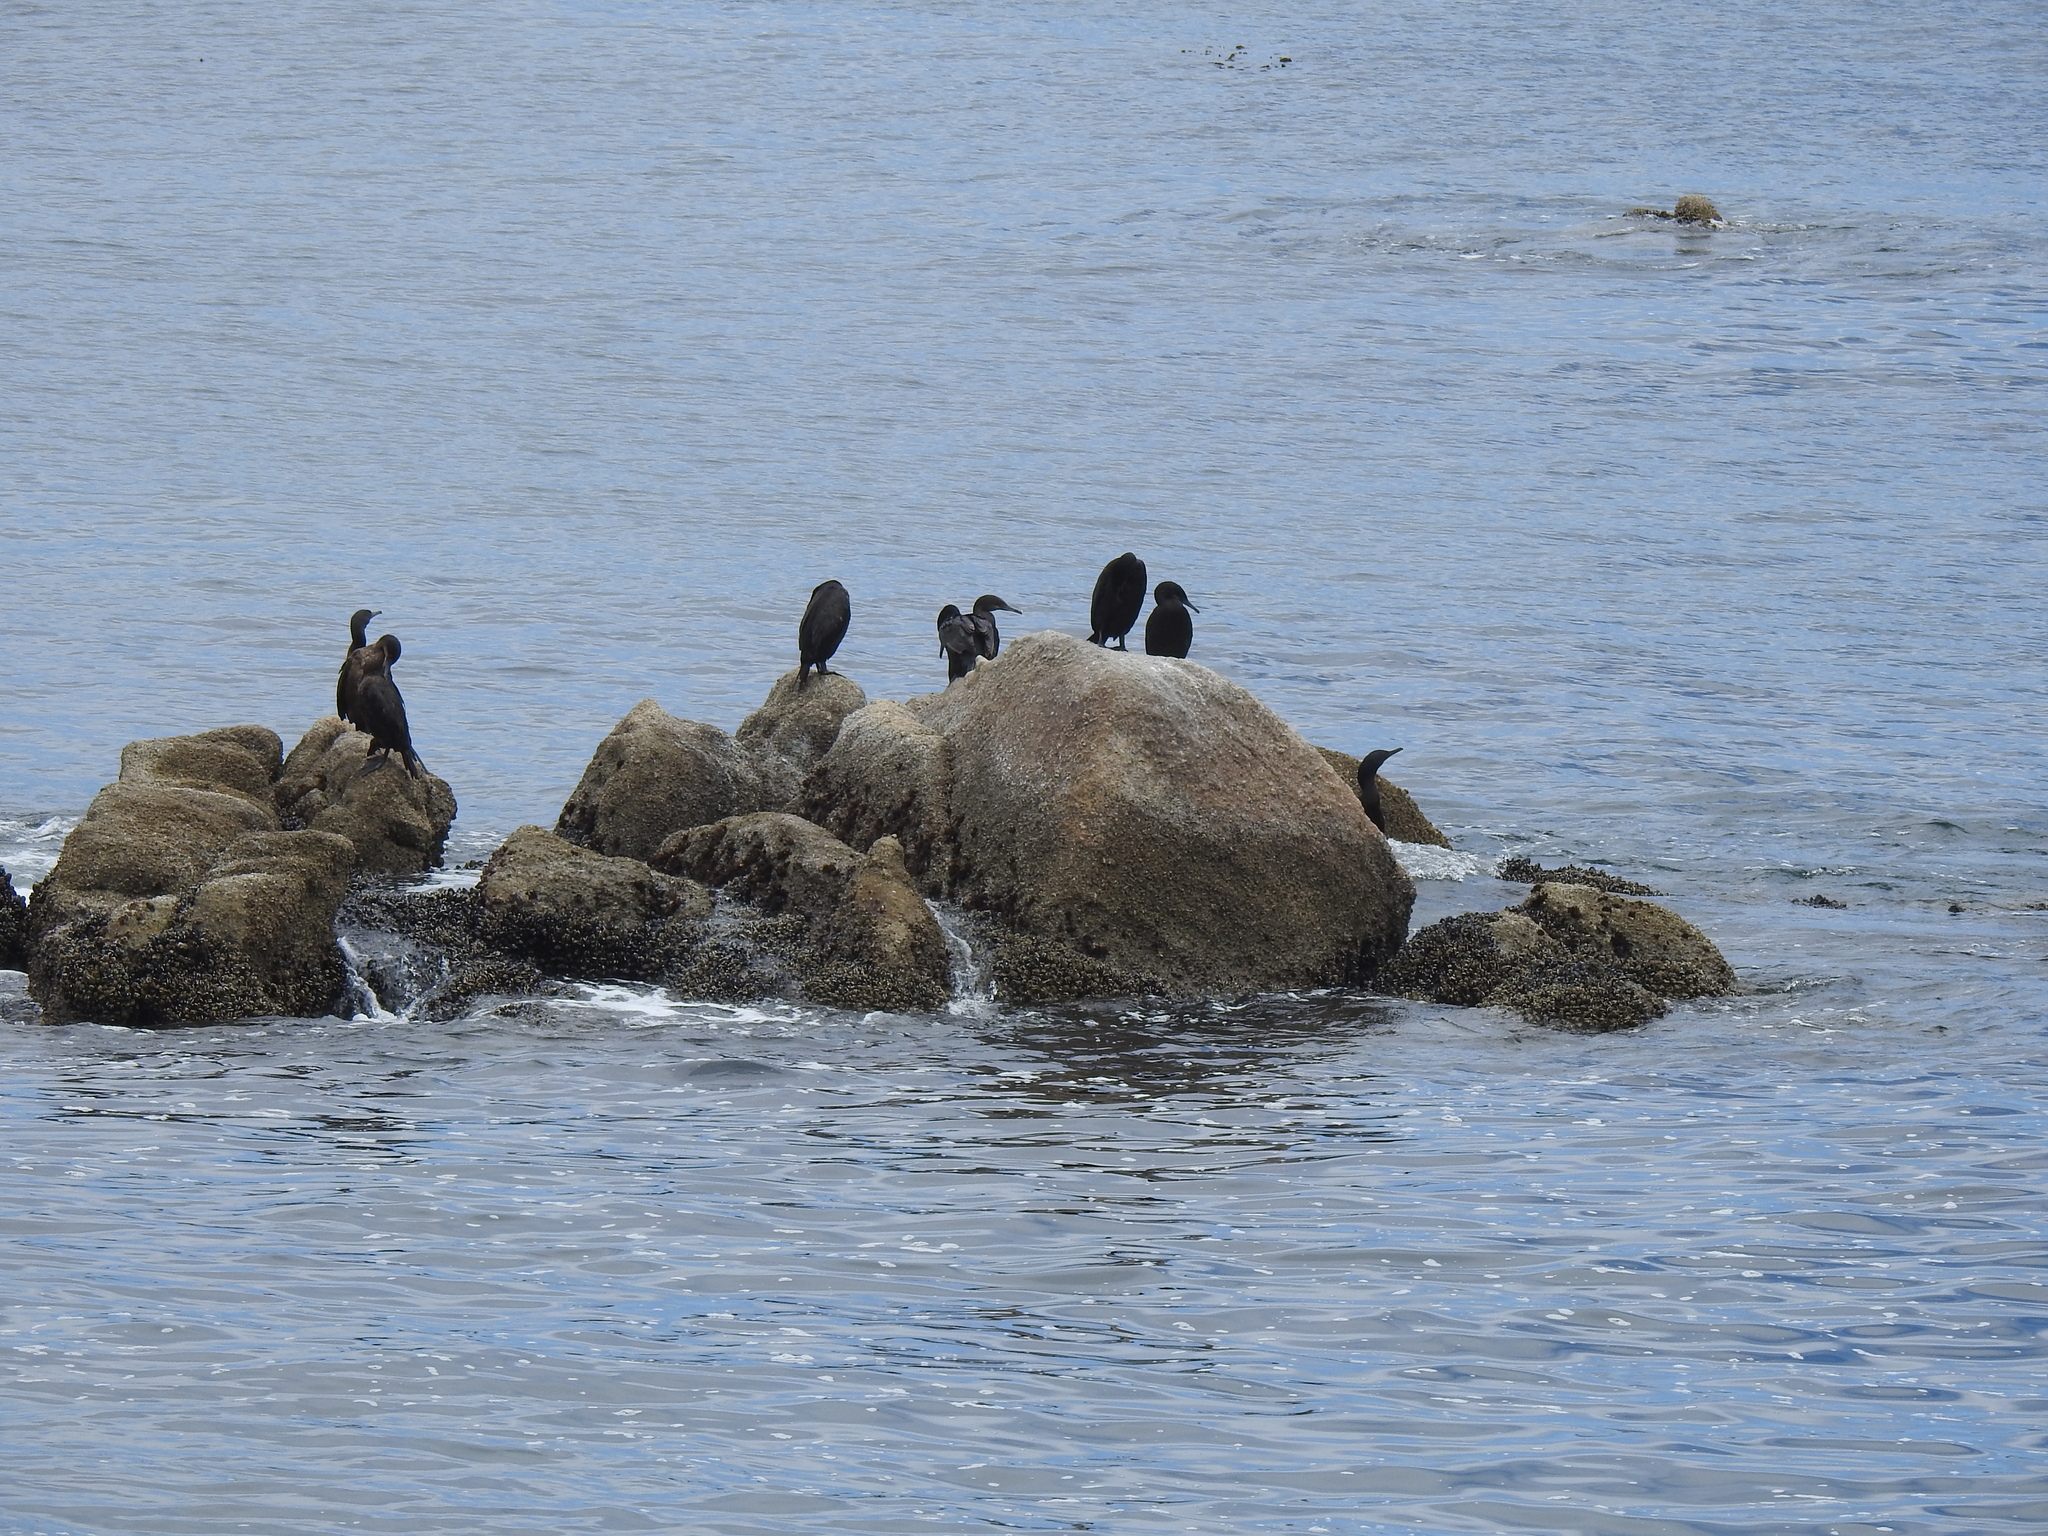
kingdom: Animalia
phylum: Chordata
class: Aves
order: Suliformes
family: Phalacrocoracidae
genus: Urile
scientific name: Urile penicillatus
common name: Brandt's cormorant
